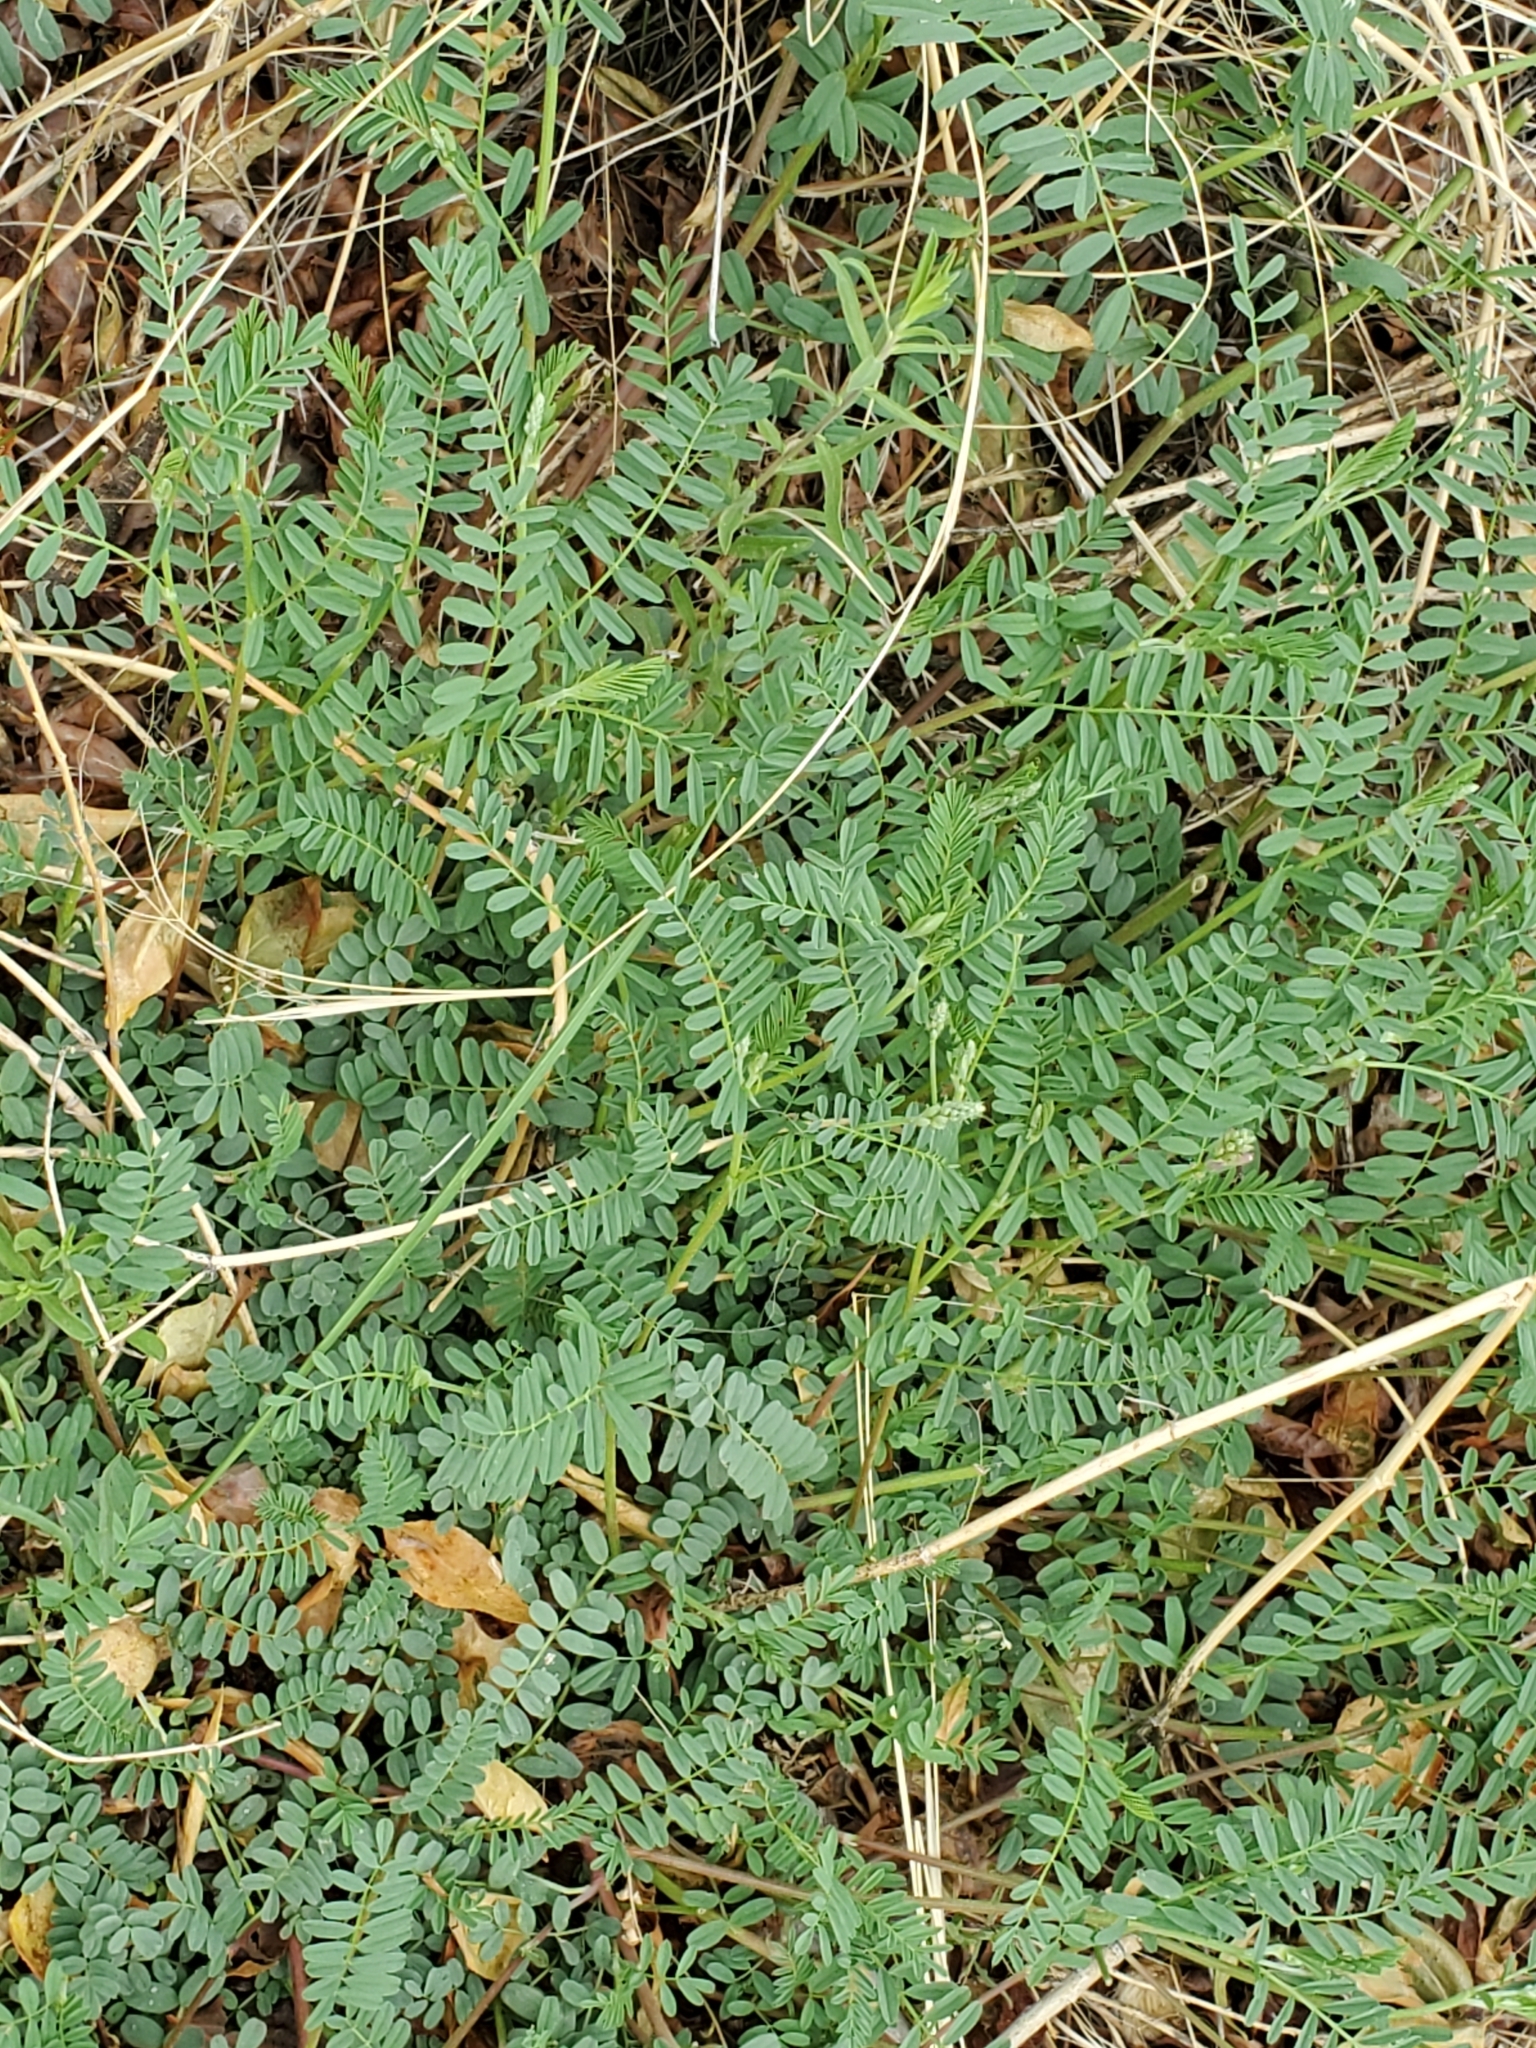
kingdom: Plantae
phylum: Tracheophyta
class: Magnoliopsida
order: Fabales
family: Fabaceae
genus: Astragalus
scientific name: Astragalus hallii
